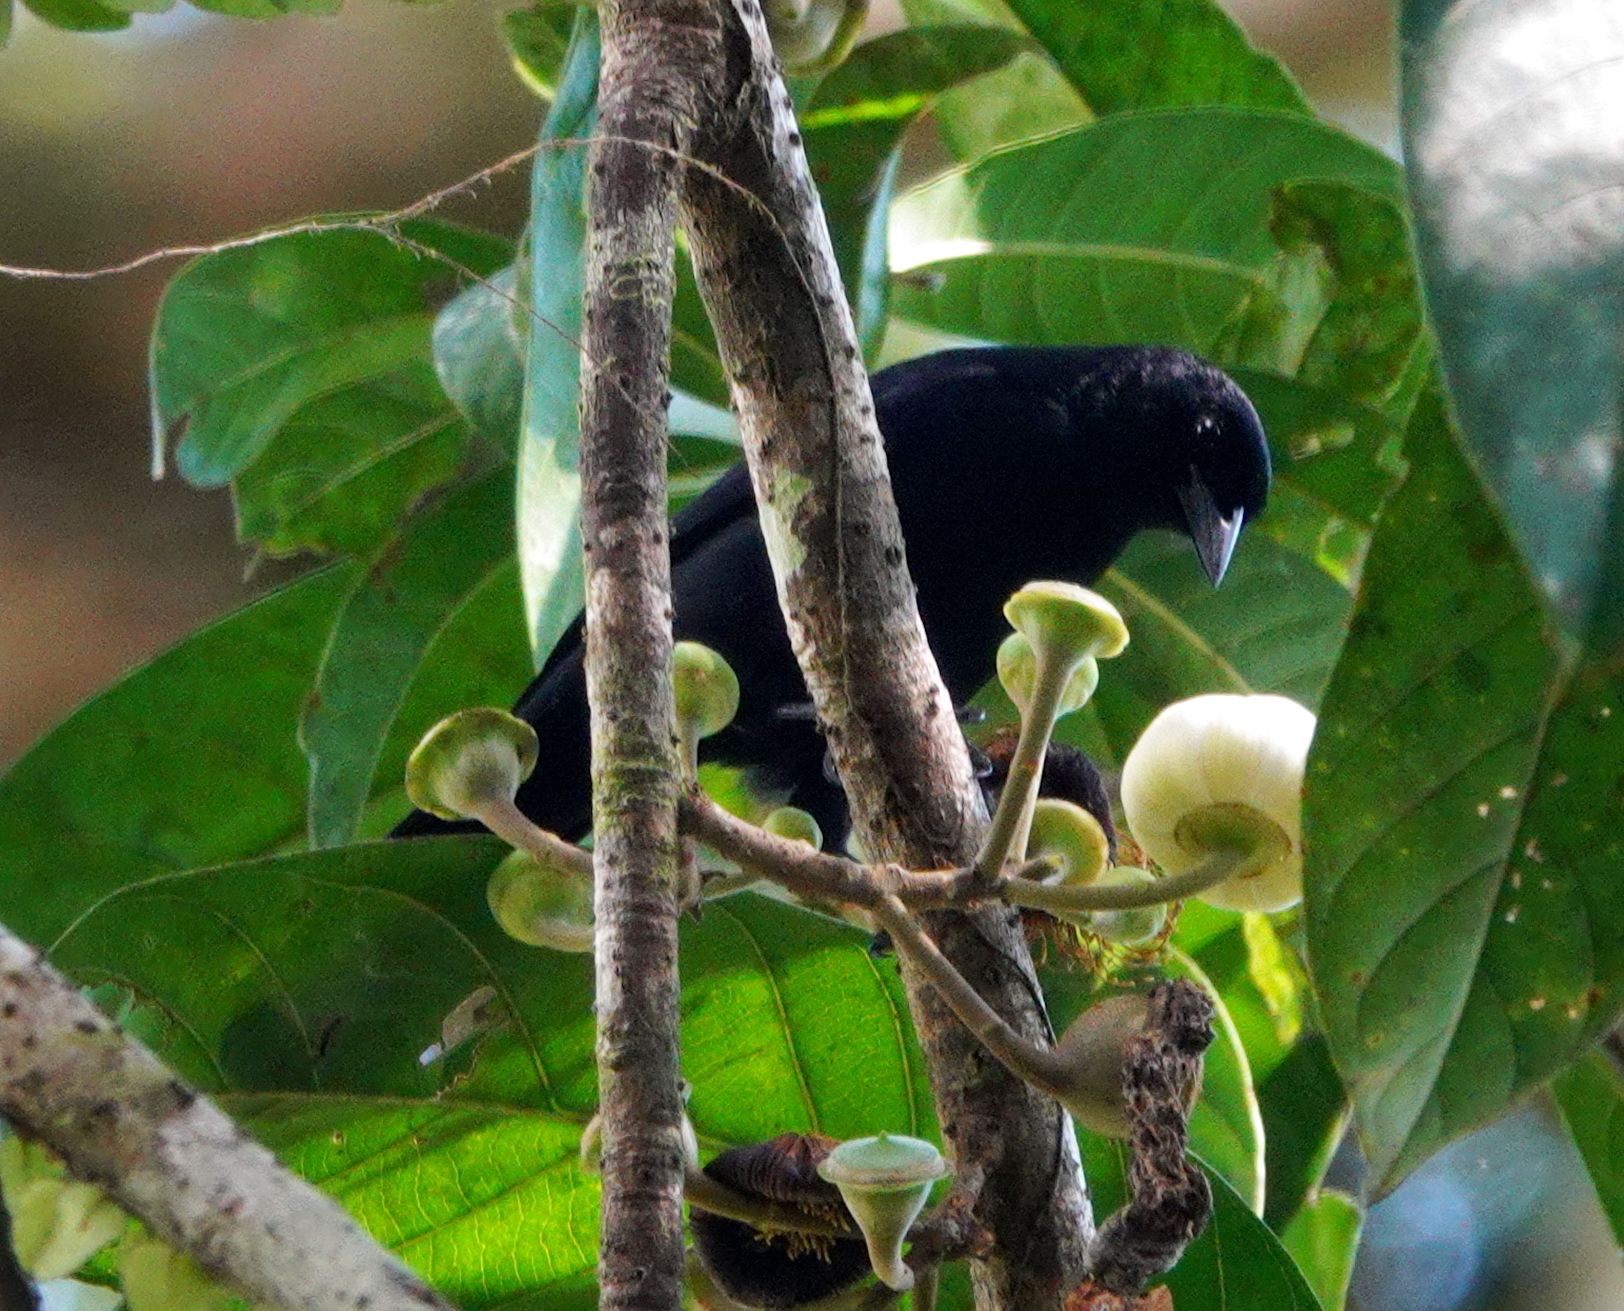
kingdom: Animalia
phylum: Chordata
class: Aves
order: Passeriformes
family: Icteridae
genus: Lampropsar
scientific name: Lampropsar tanagrinus
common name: Velvet-fronted grackle
